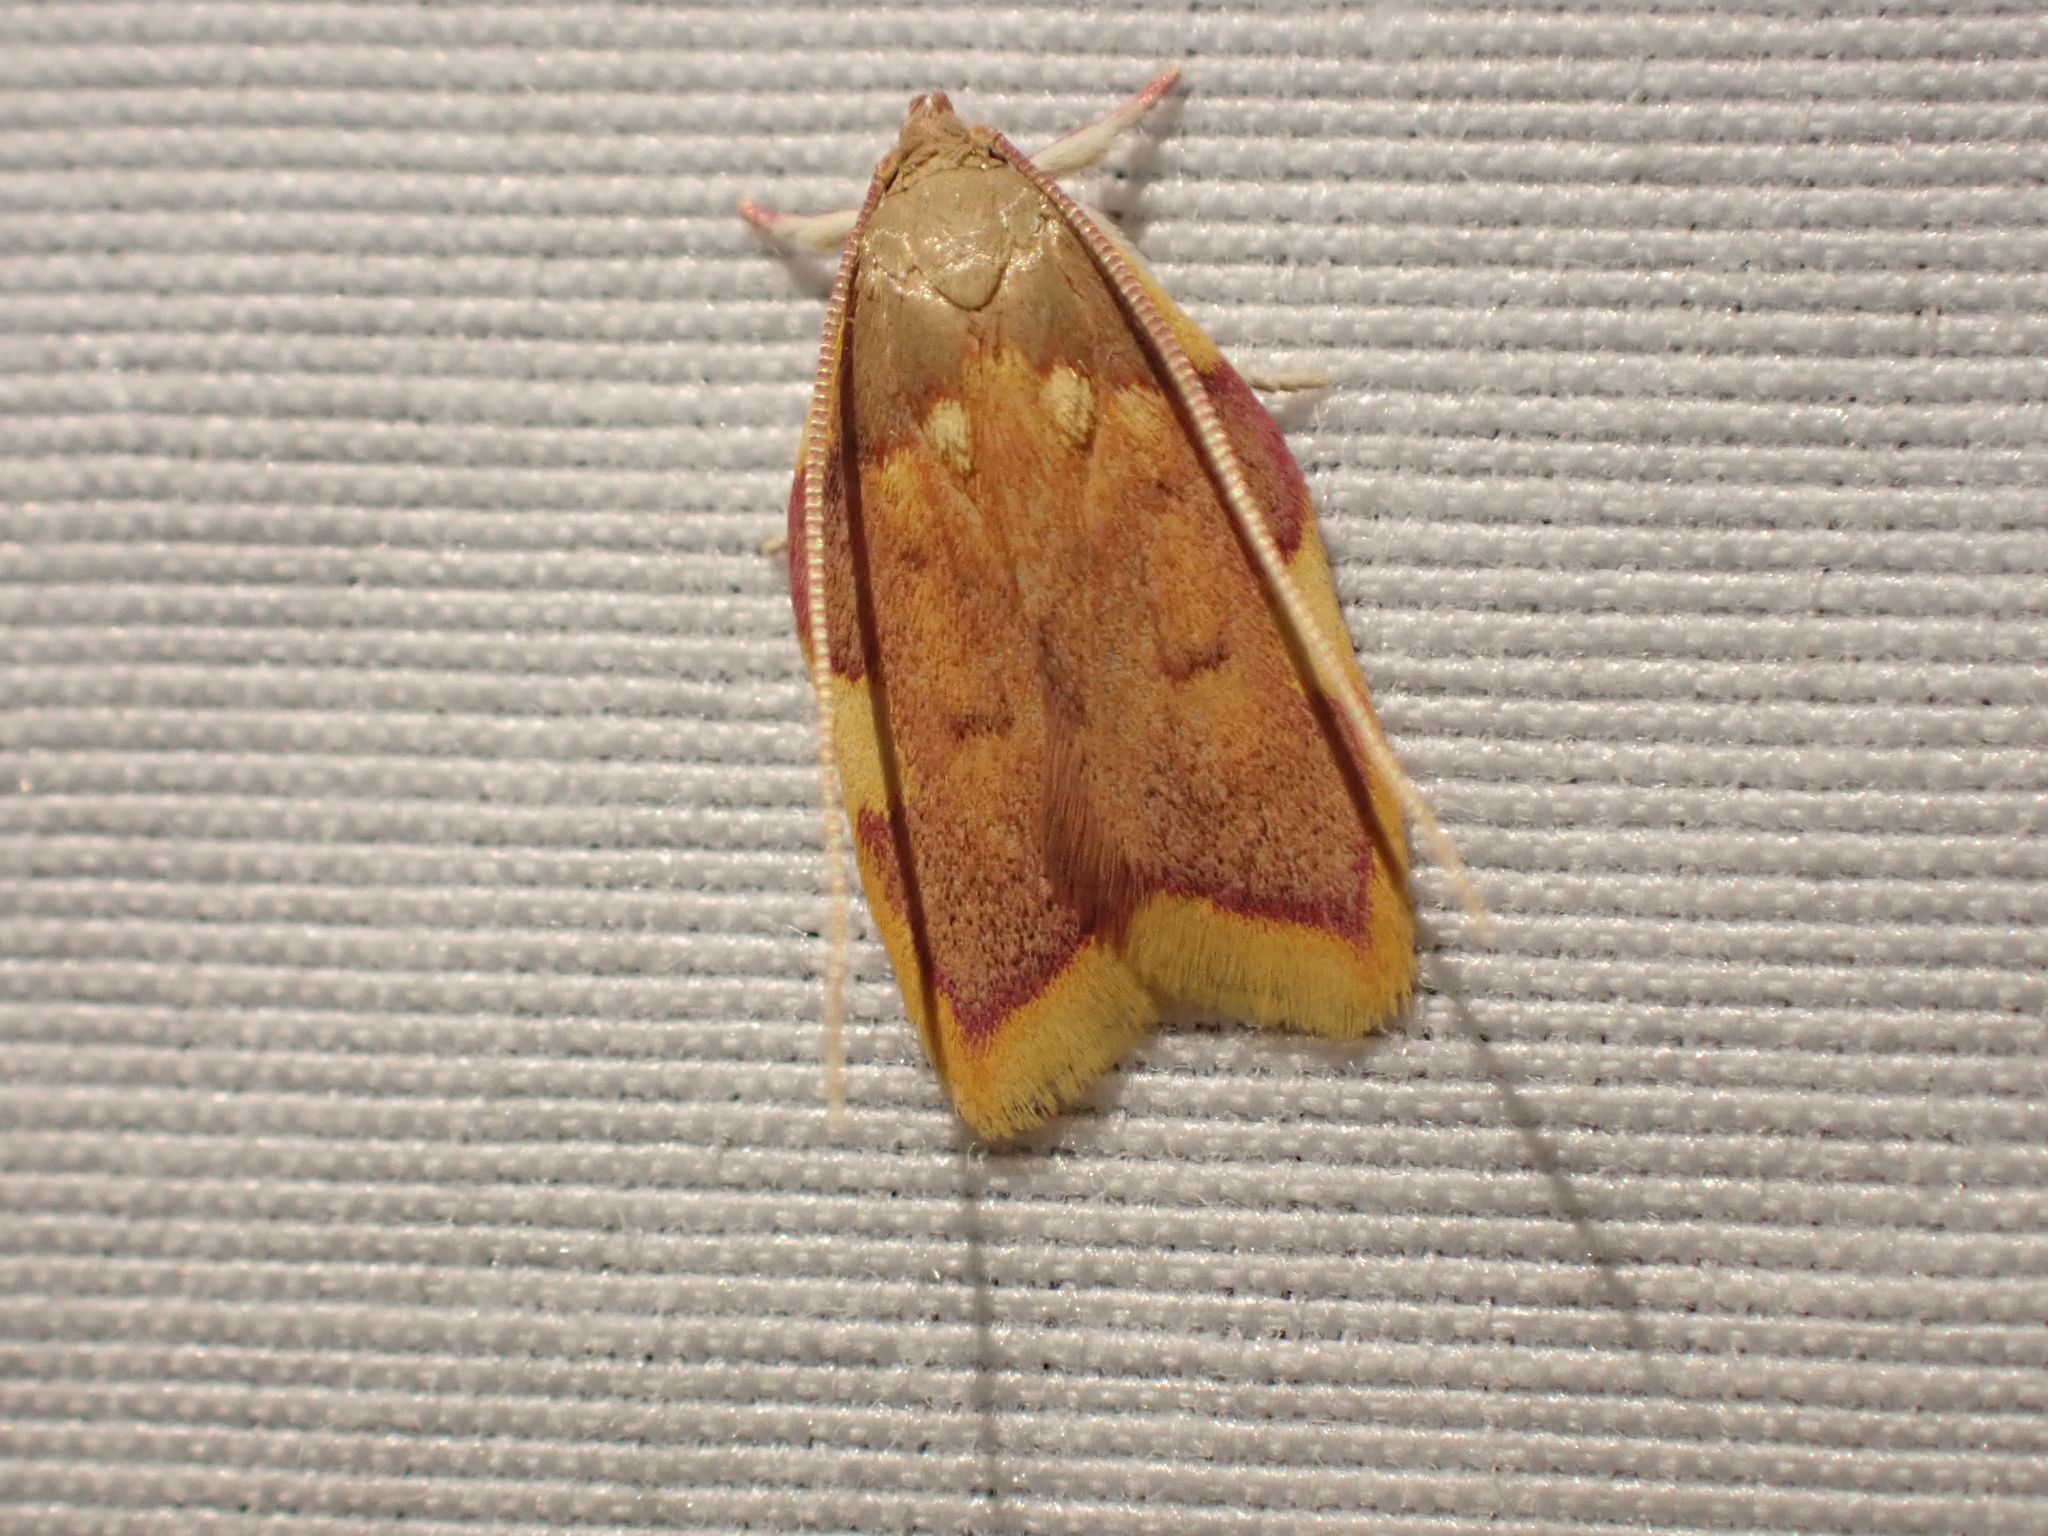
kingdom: Animalia
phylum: Arthropoda
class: Insecta
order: Lepidoptera
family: Peleopodidae
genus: Carcina
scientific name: Carcina quercana
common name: Moth
